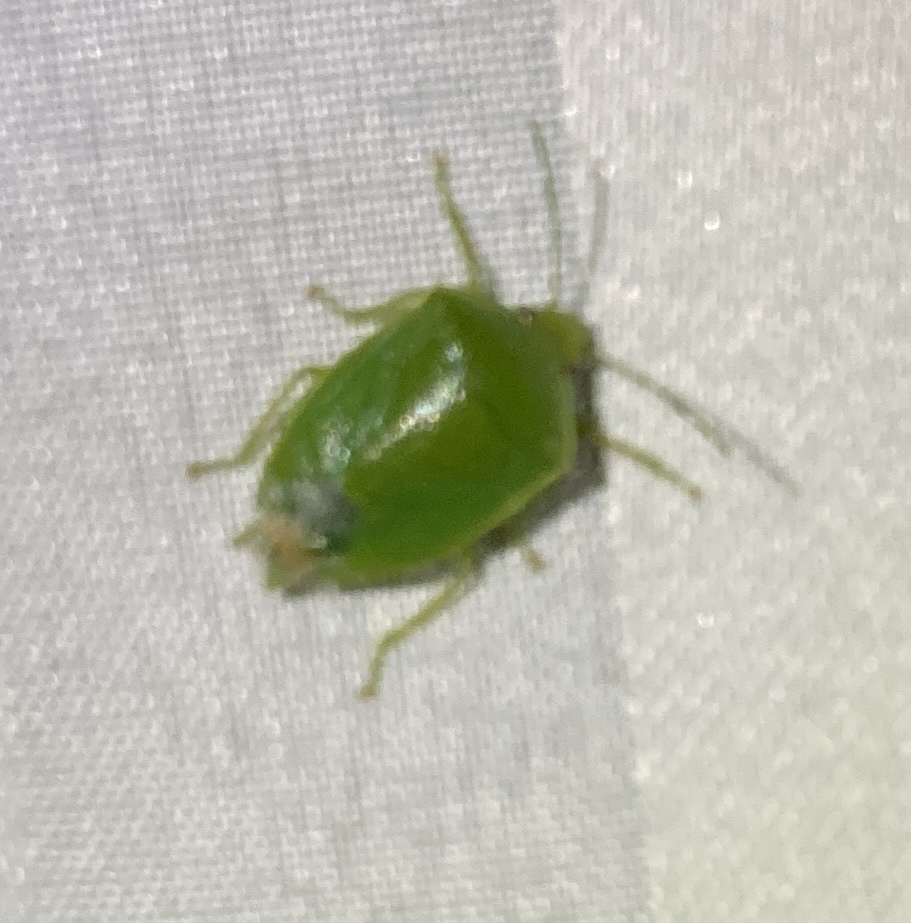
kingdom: Animalia
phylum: Arthropoda
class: Insecta
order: Hemiptera
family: Pentatomidae
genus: Glaucias
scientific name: Glaucias amyota
